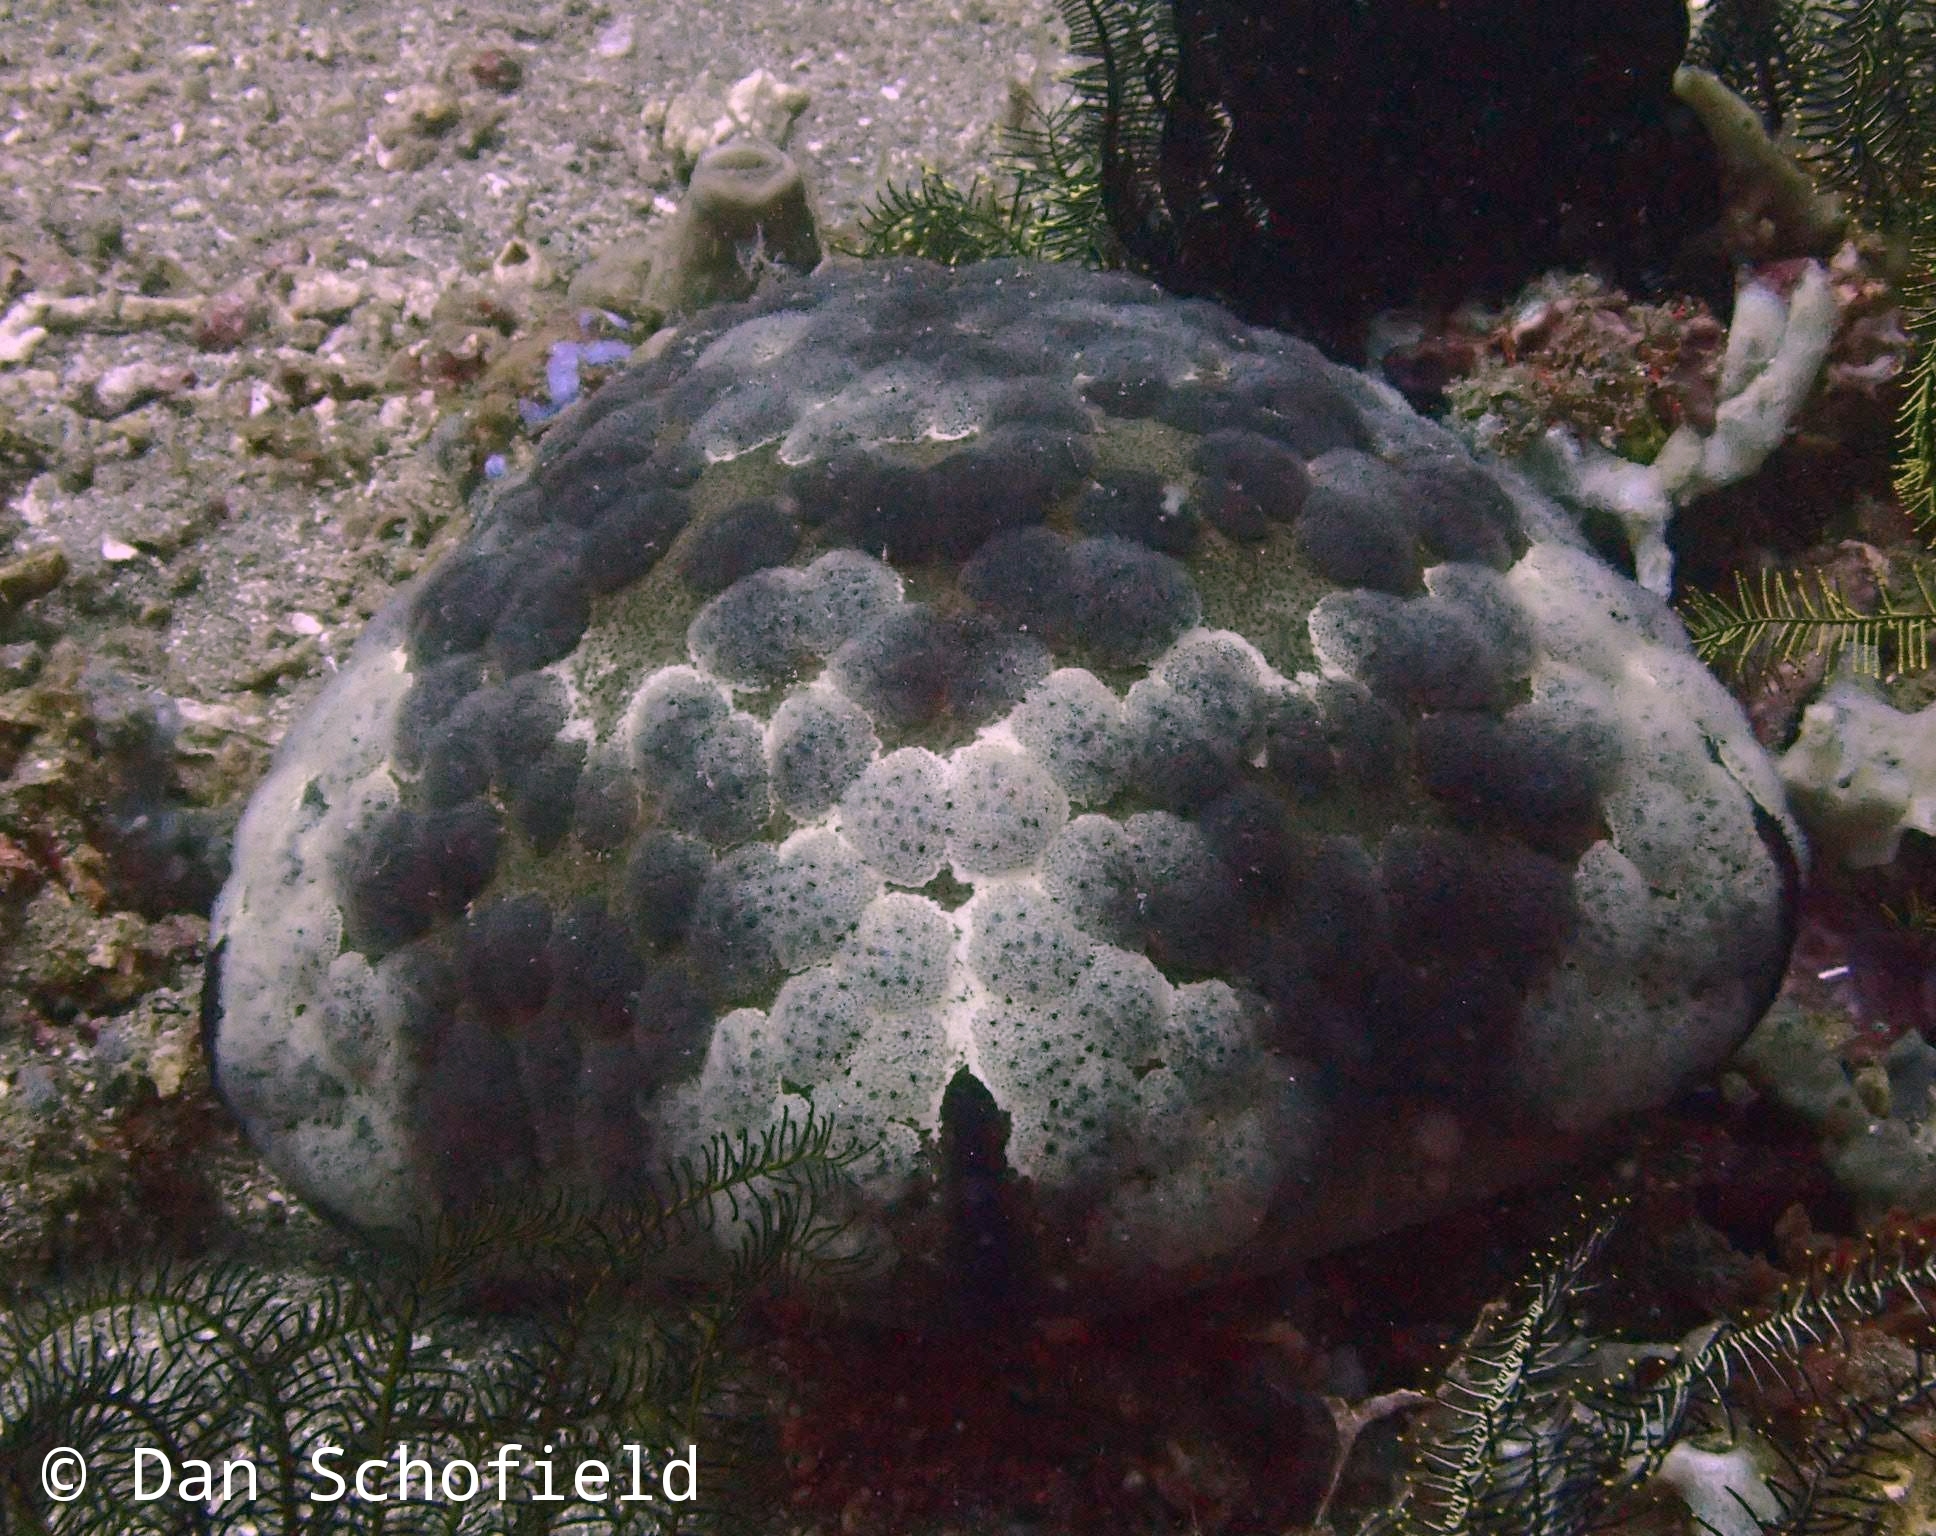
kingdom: Animalia
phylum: Echinodermata
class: Asteroidea
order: Valvatida
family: Oreasteridae
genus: Culcita
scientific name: Culcita novaeguineae
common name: Cushion star
